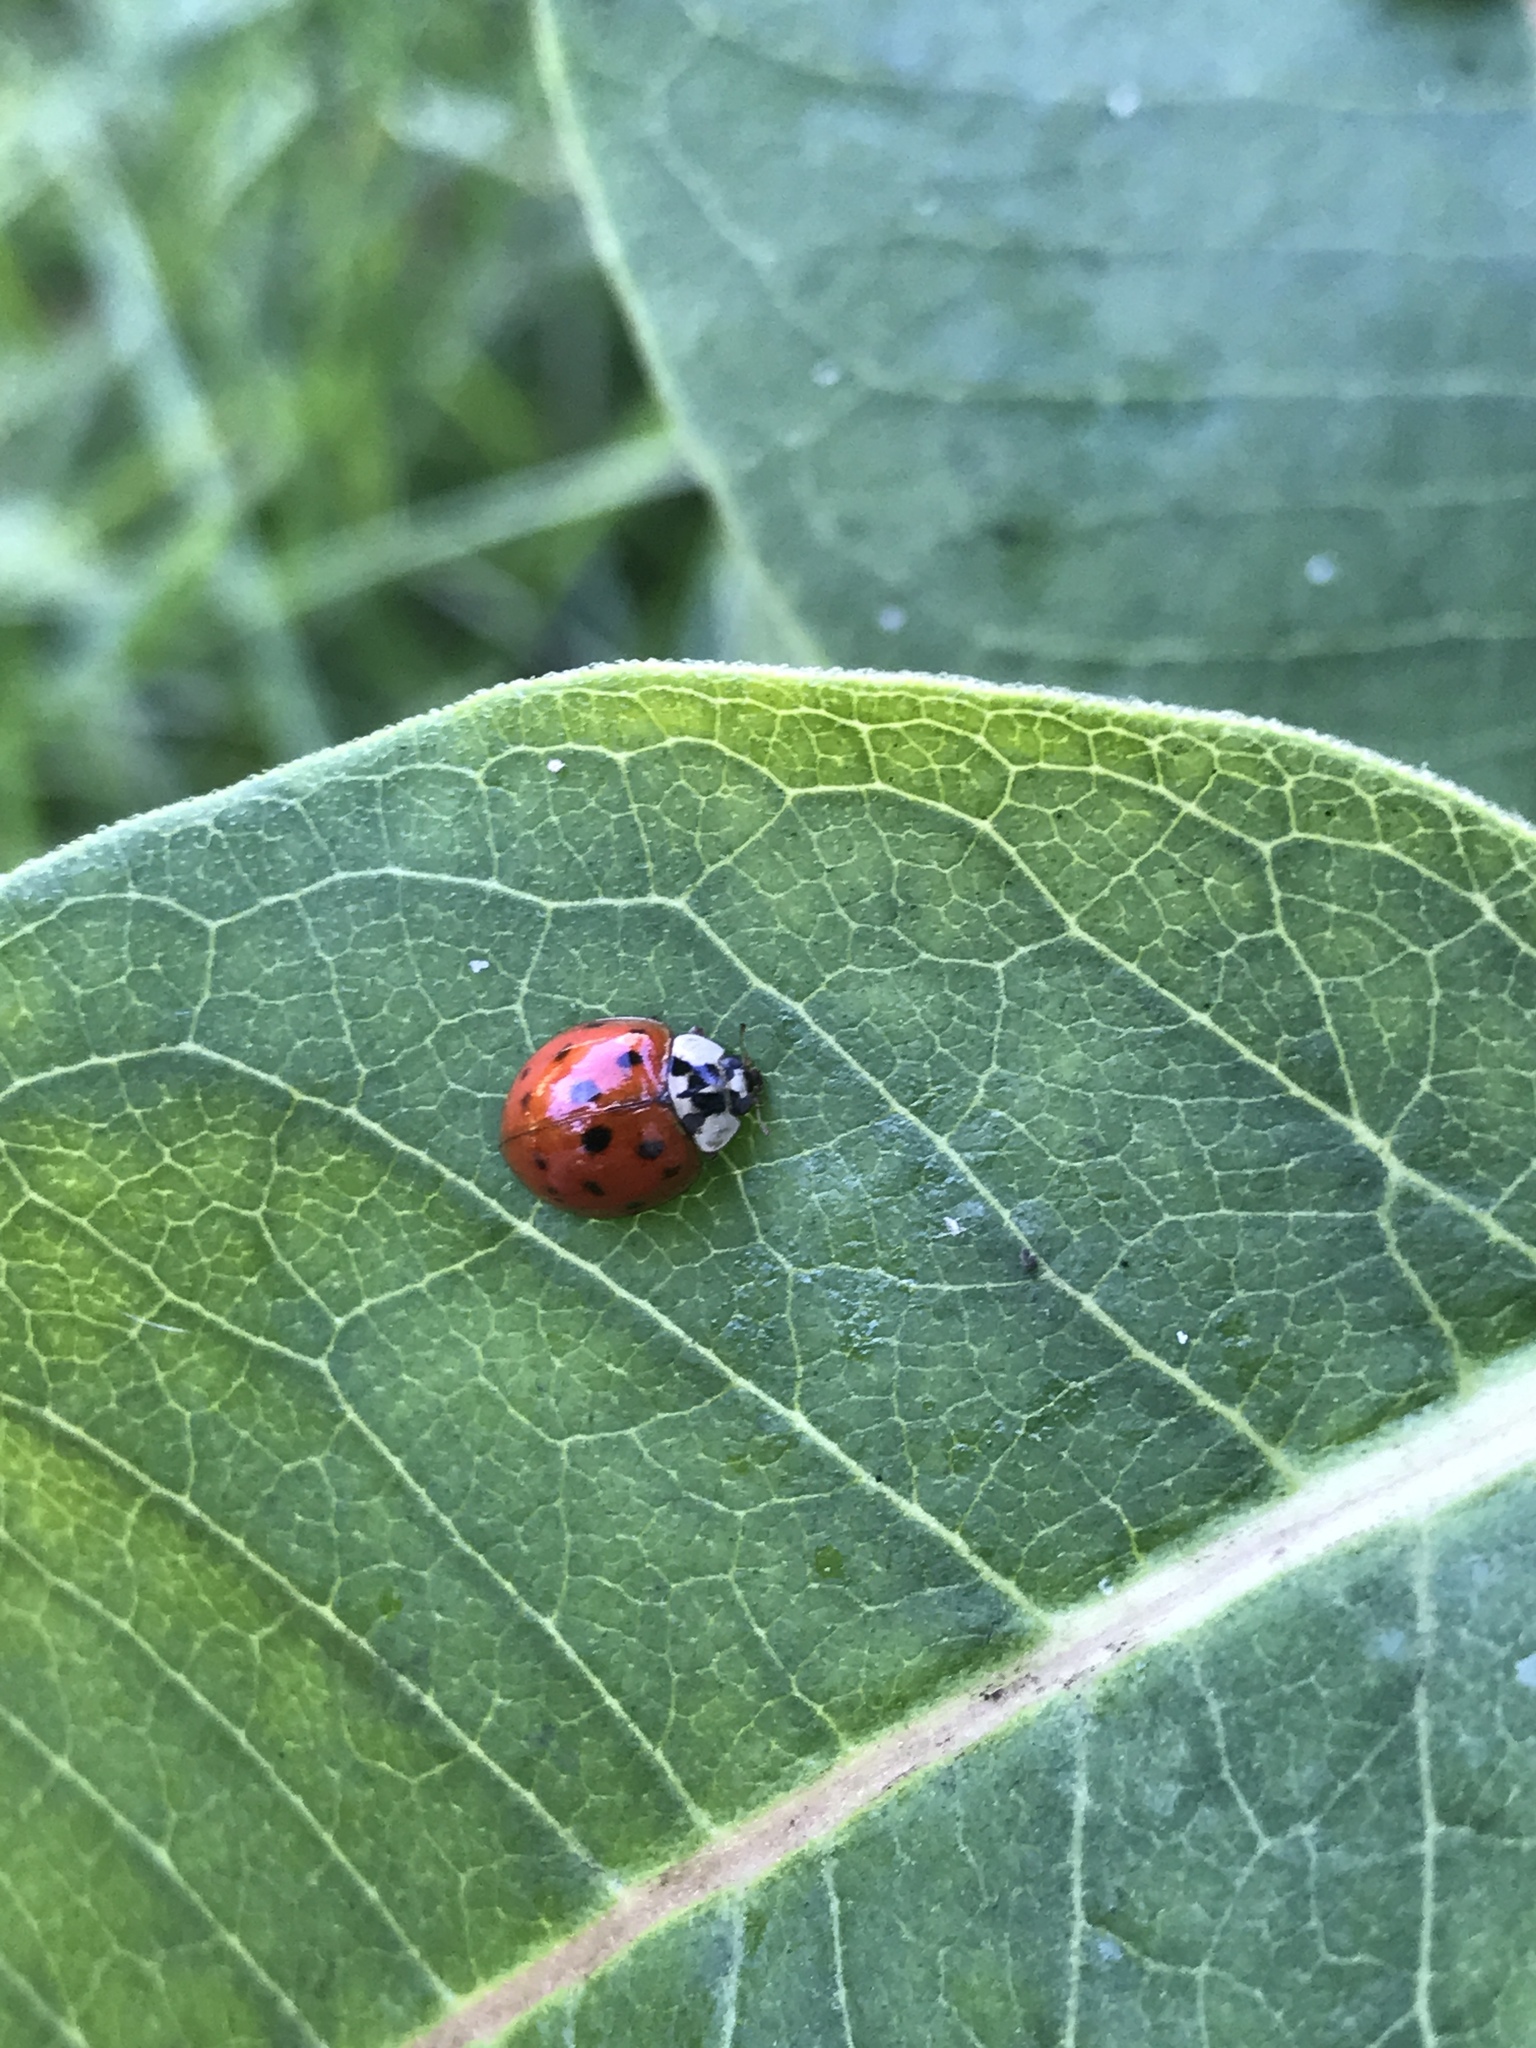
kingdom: Animalia
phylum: Arthropoda
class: Insecta
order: Coleoptera
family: Coccinellidae
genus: Harmonia
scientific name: Harmonia axyridis
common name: Harlequin ladybird
